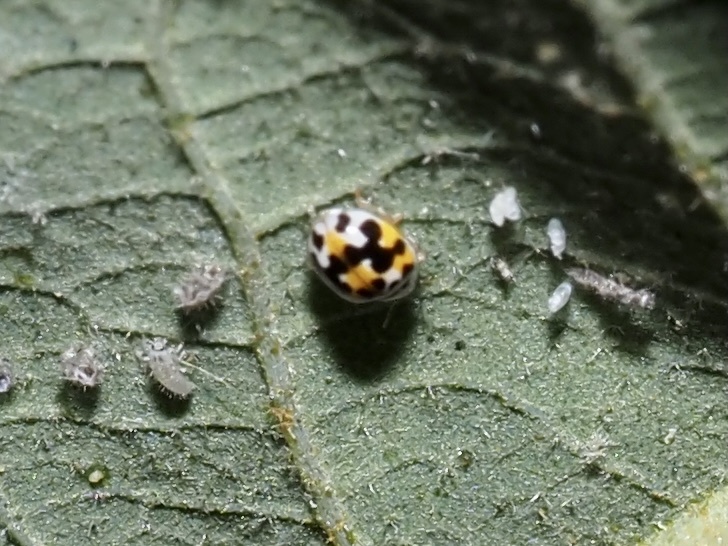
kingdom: Animalia
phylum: Arthropoda
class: Insecta
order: Coleoptera
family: Coccinellidae
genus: Psyllobora
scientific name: Psyllobora vigintimaculata
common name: Ladybird beetle
